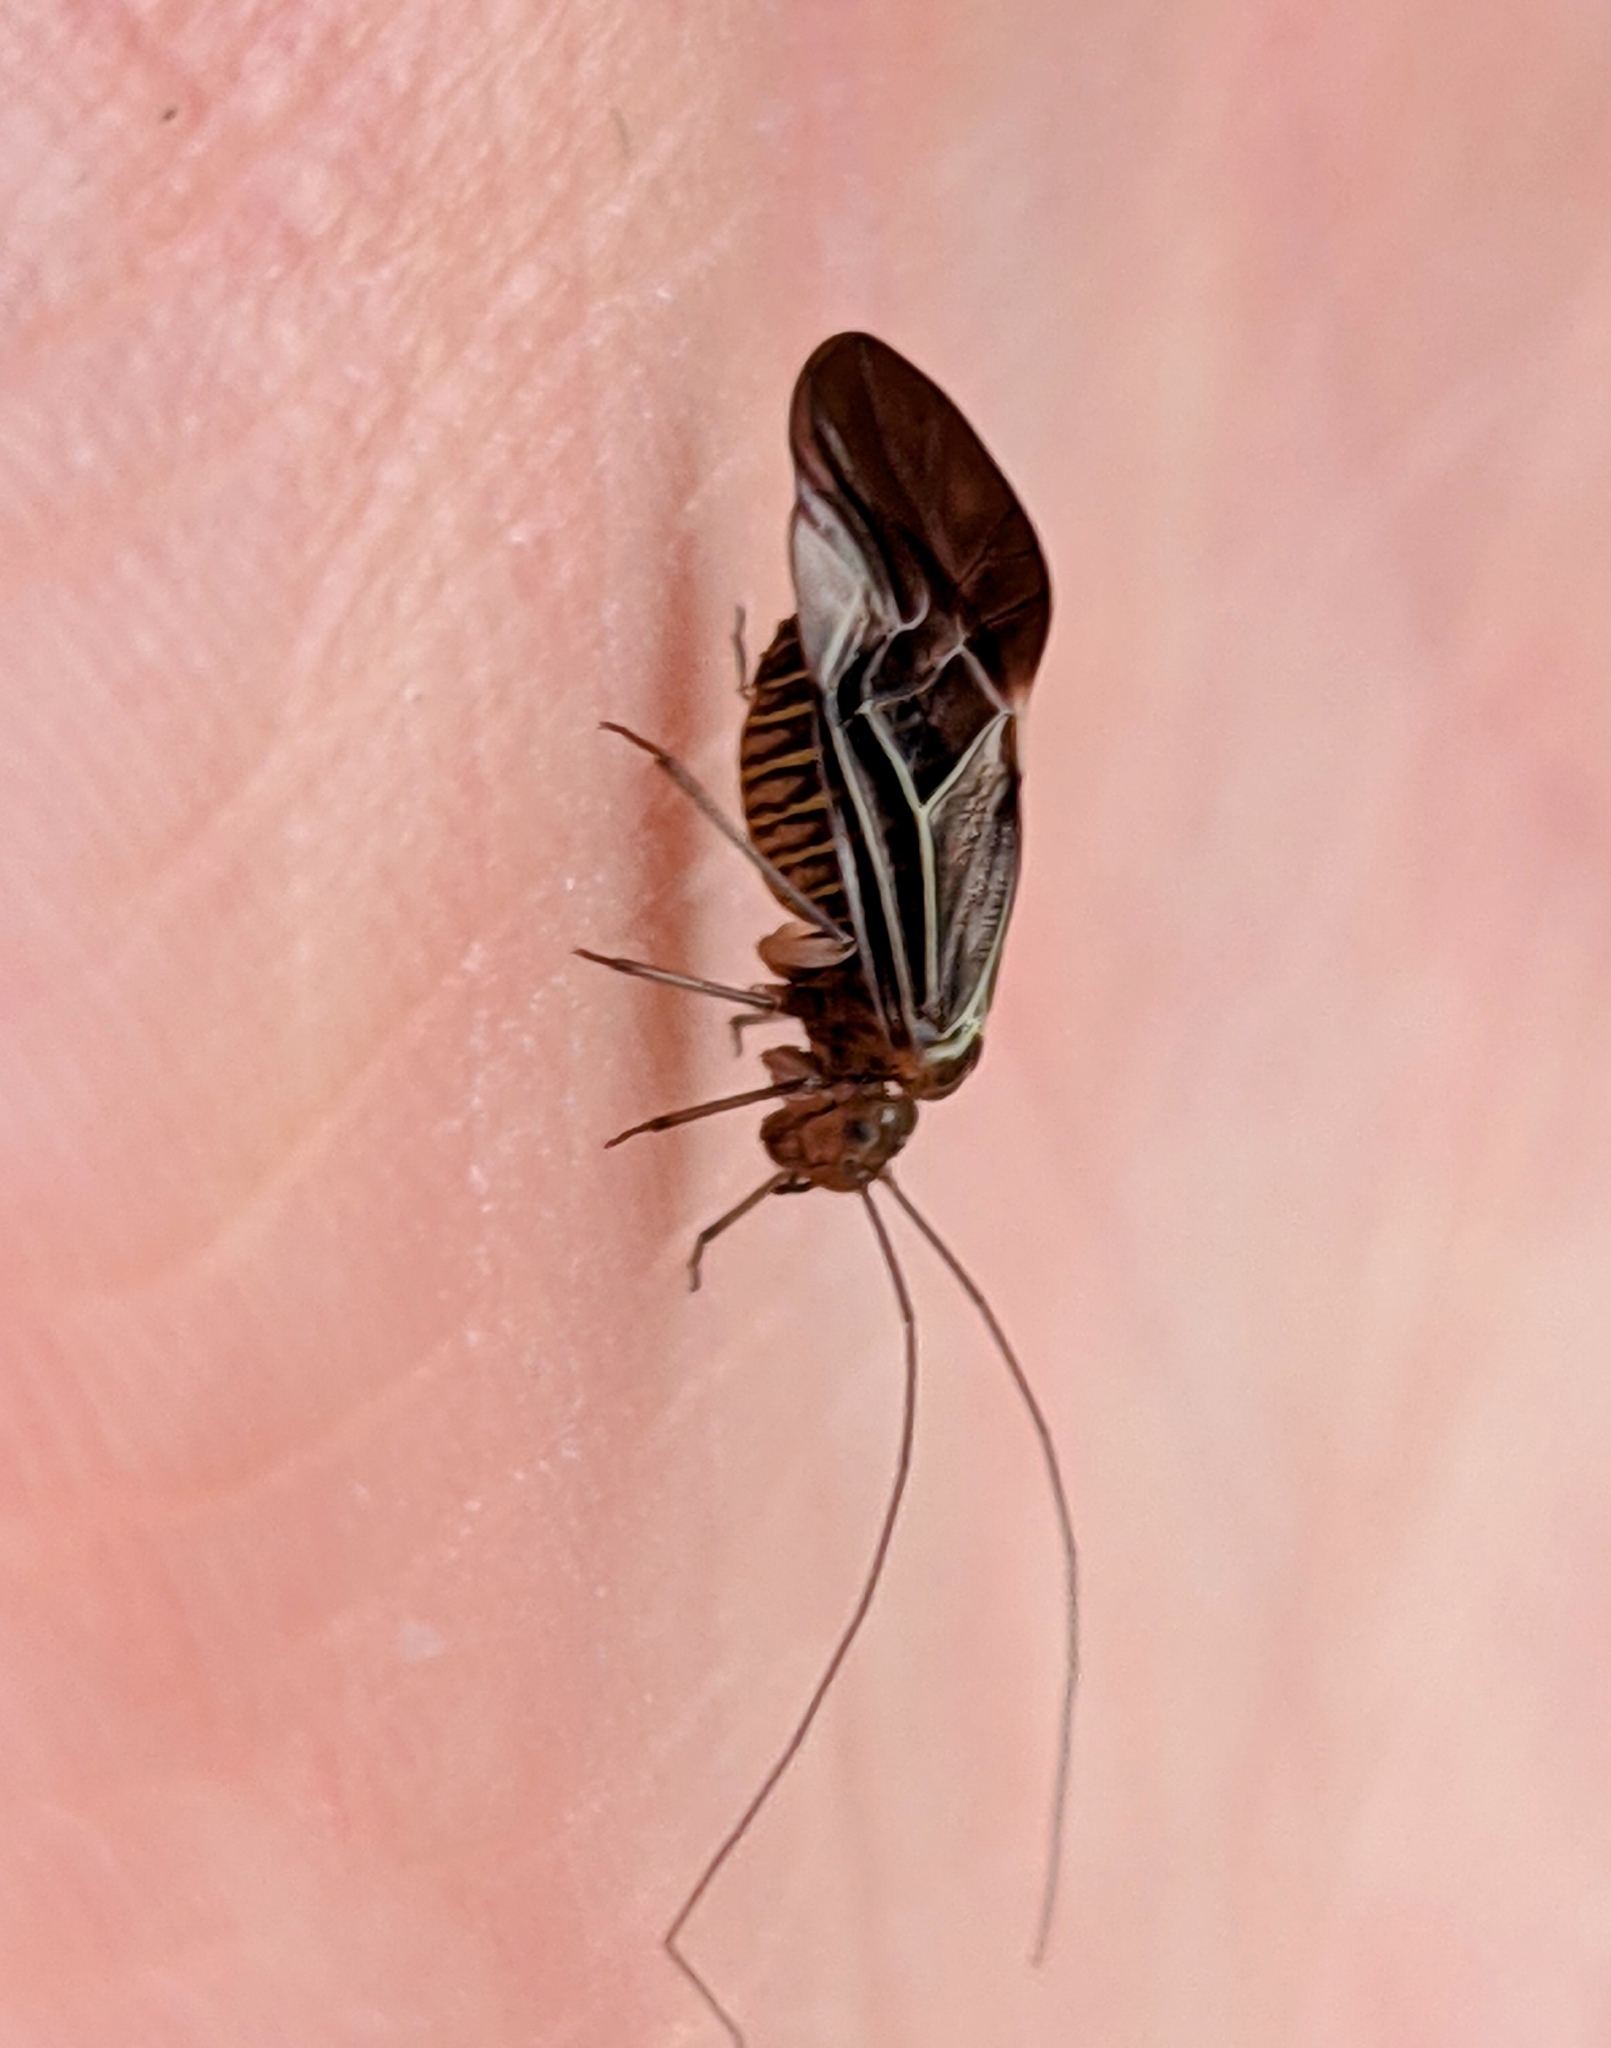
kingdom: Animalia
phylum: Arthropoda
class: Insecta
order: Psocodea
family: Psocidae
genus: Cerastipsocus
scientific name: Cerastipsocus venosus
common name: Tree cattle
